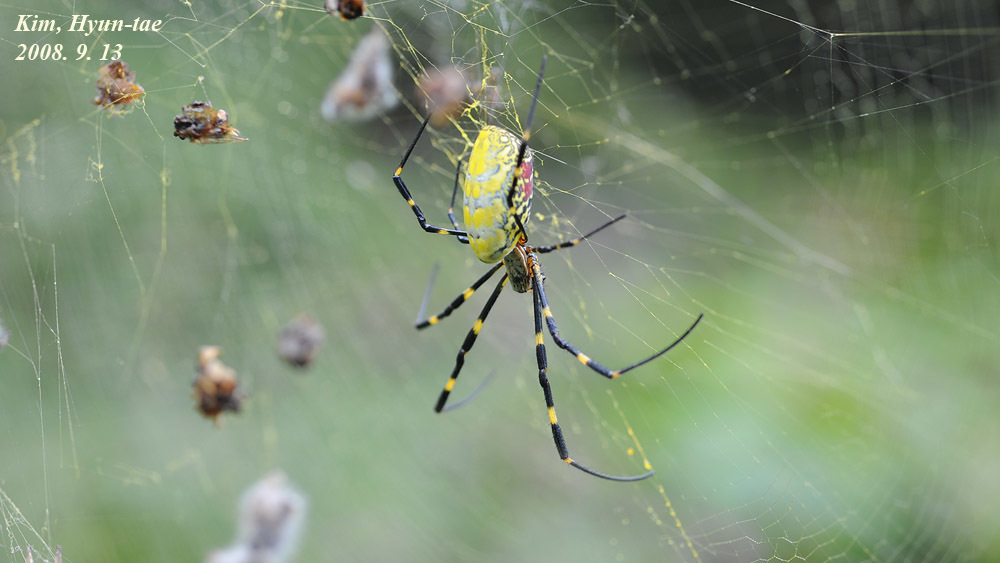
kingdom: Animalia
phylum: Arthropoda
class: Arachnida
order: Araneae
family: Araneidae
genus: Trichonephila
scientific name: Trichonephila clavata
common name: Jorō spider
